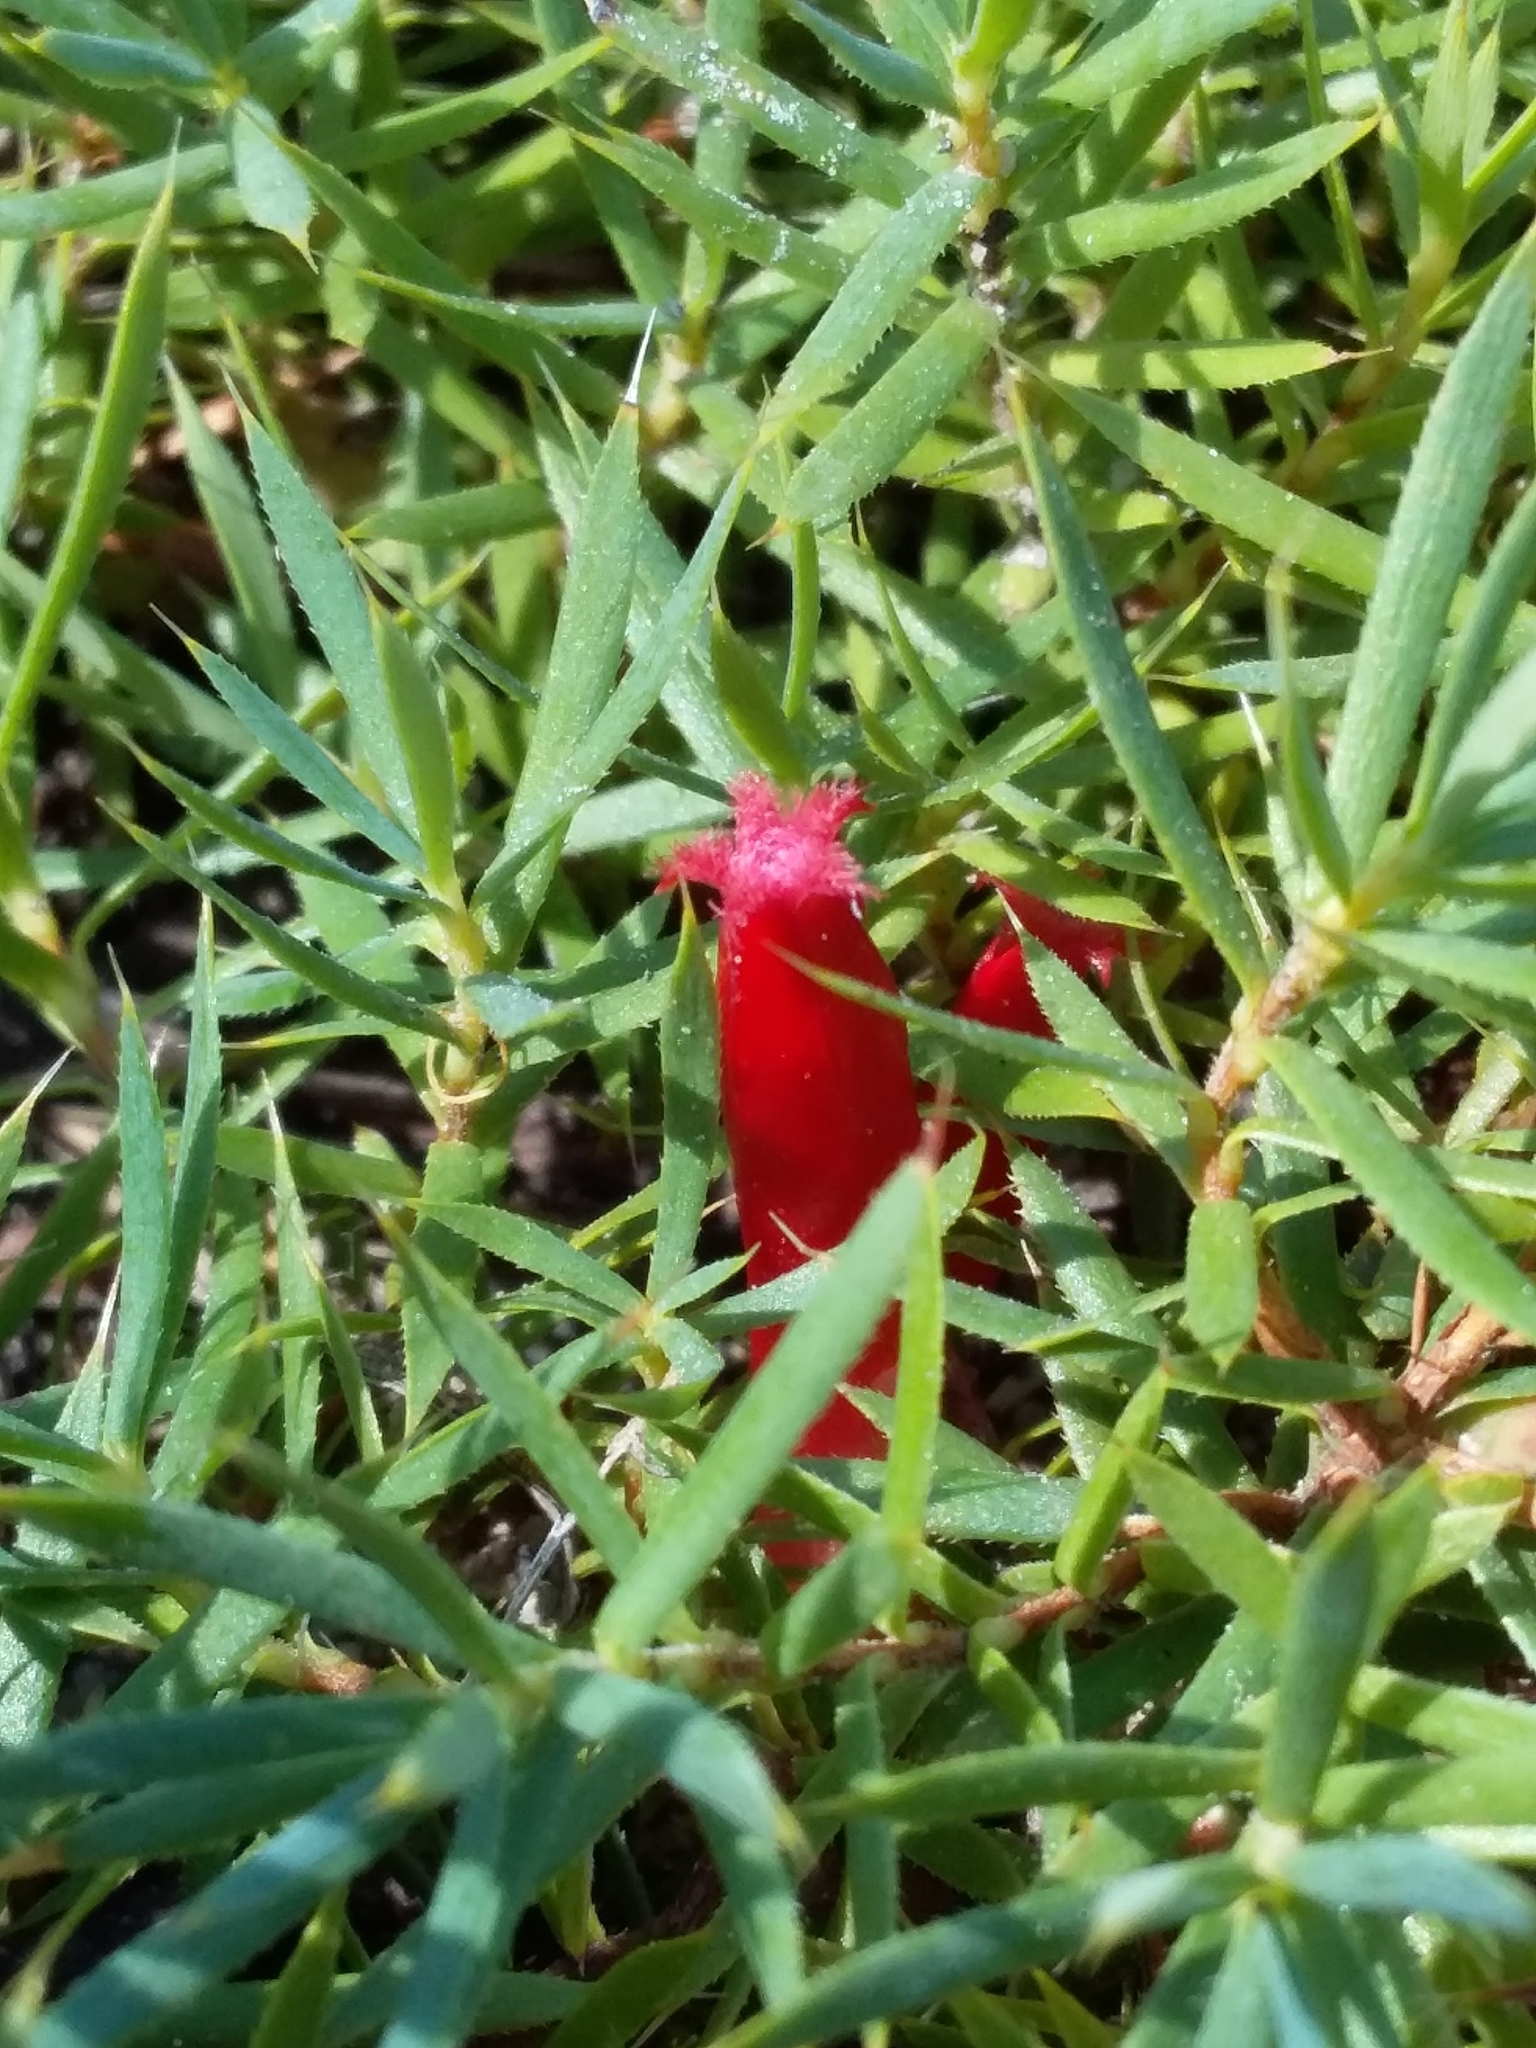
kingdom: Plantae
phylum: Tracheophyta
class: Magnoliopsida
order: Ericales
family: Ericaceae
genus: Styphelia
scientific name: Styphelia humifusa
